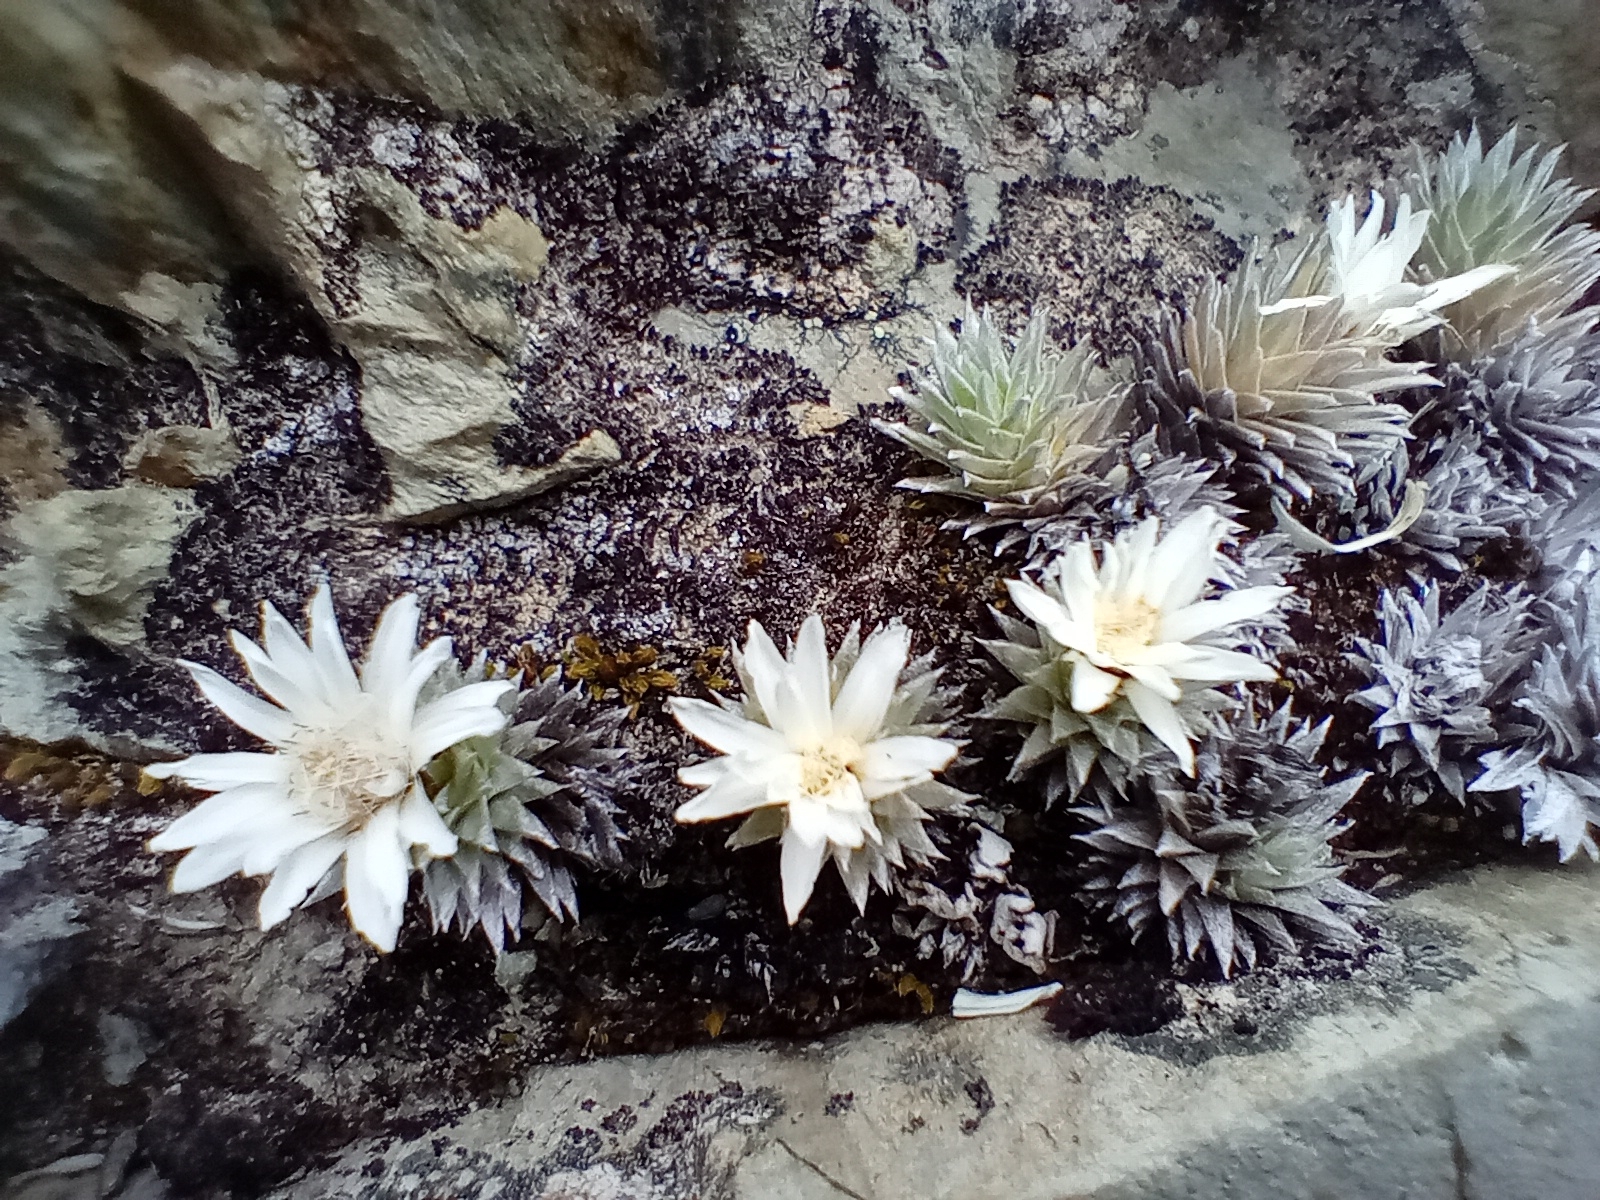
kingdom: Plantae
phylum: Tracheophyta
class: Magnoliopsida
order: Asterales
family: Asteraceae
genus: Raoulia
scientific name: Raoulia grandiflora
